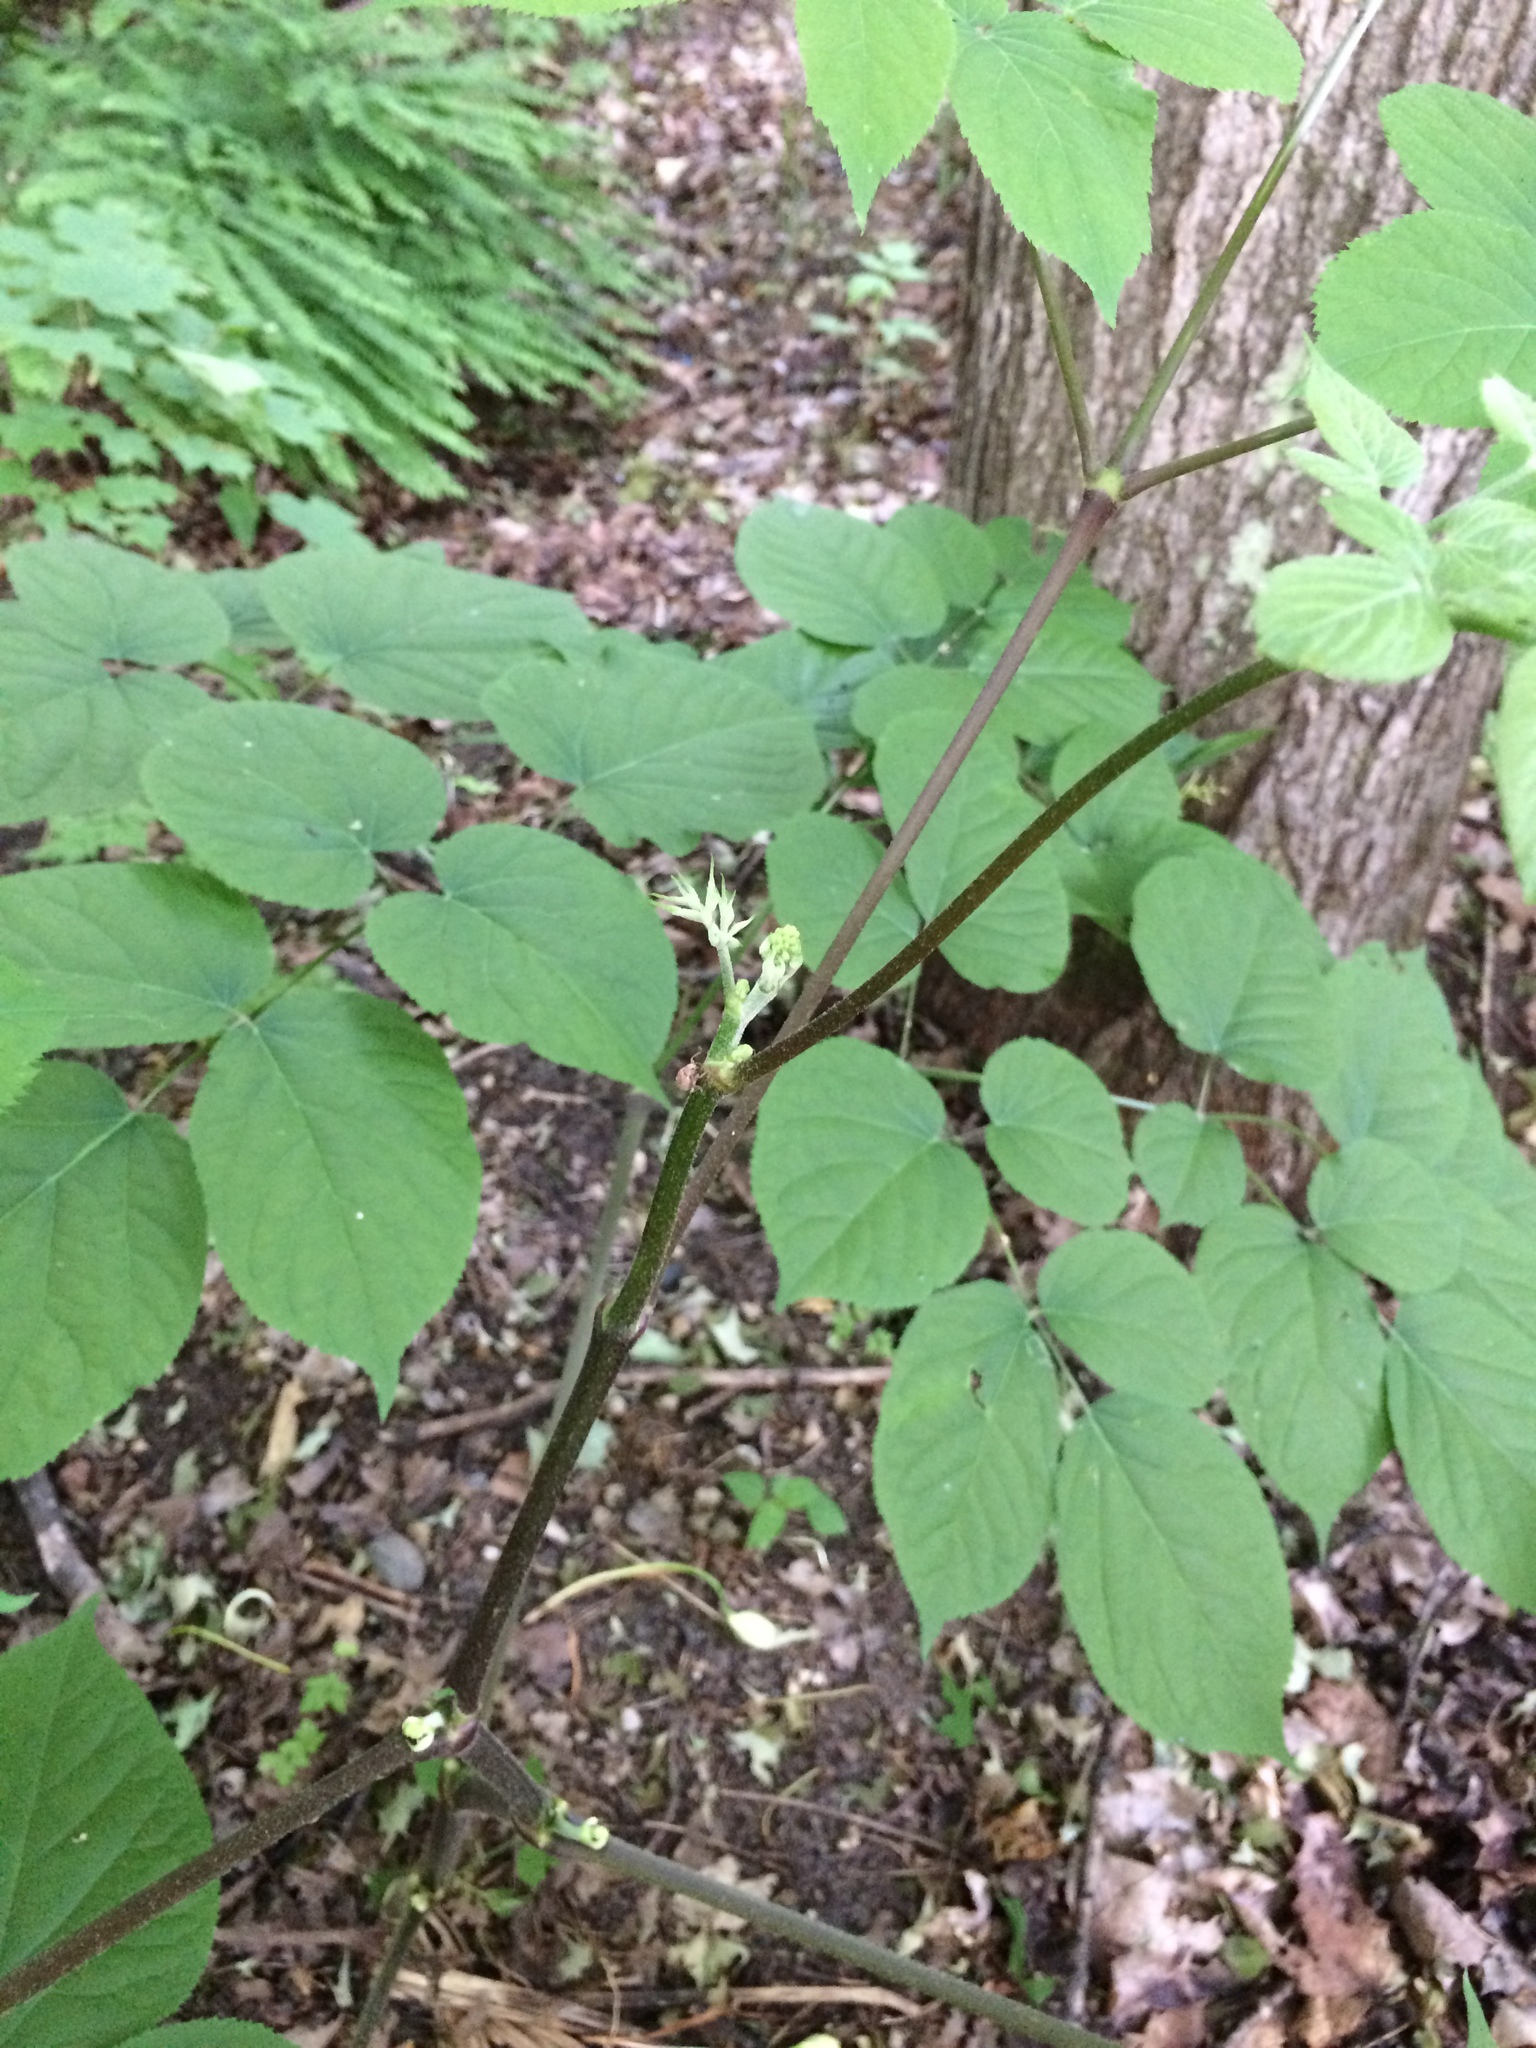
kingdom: Plantae
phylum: Tracheophyta
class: Magnoliopsida
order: Apiales
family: Araliaceae
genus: Aralia
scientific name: Aralia racemosa
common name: American-spikenard
